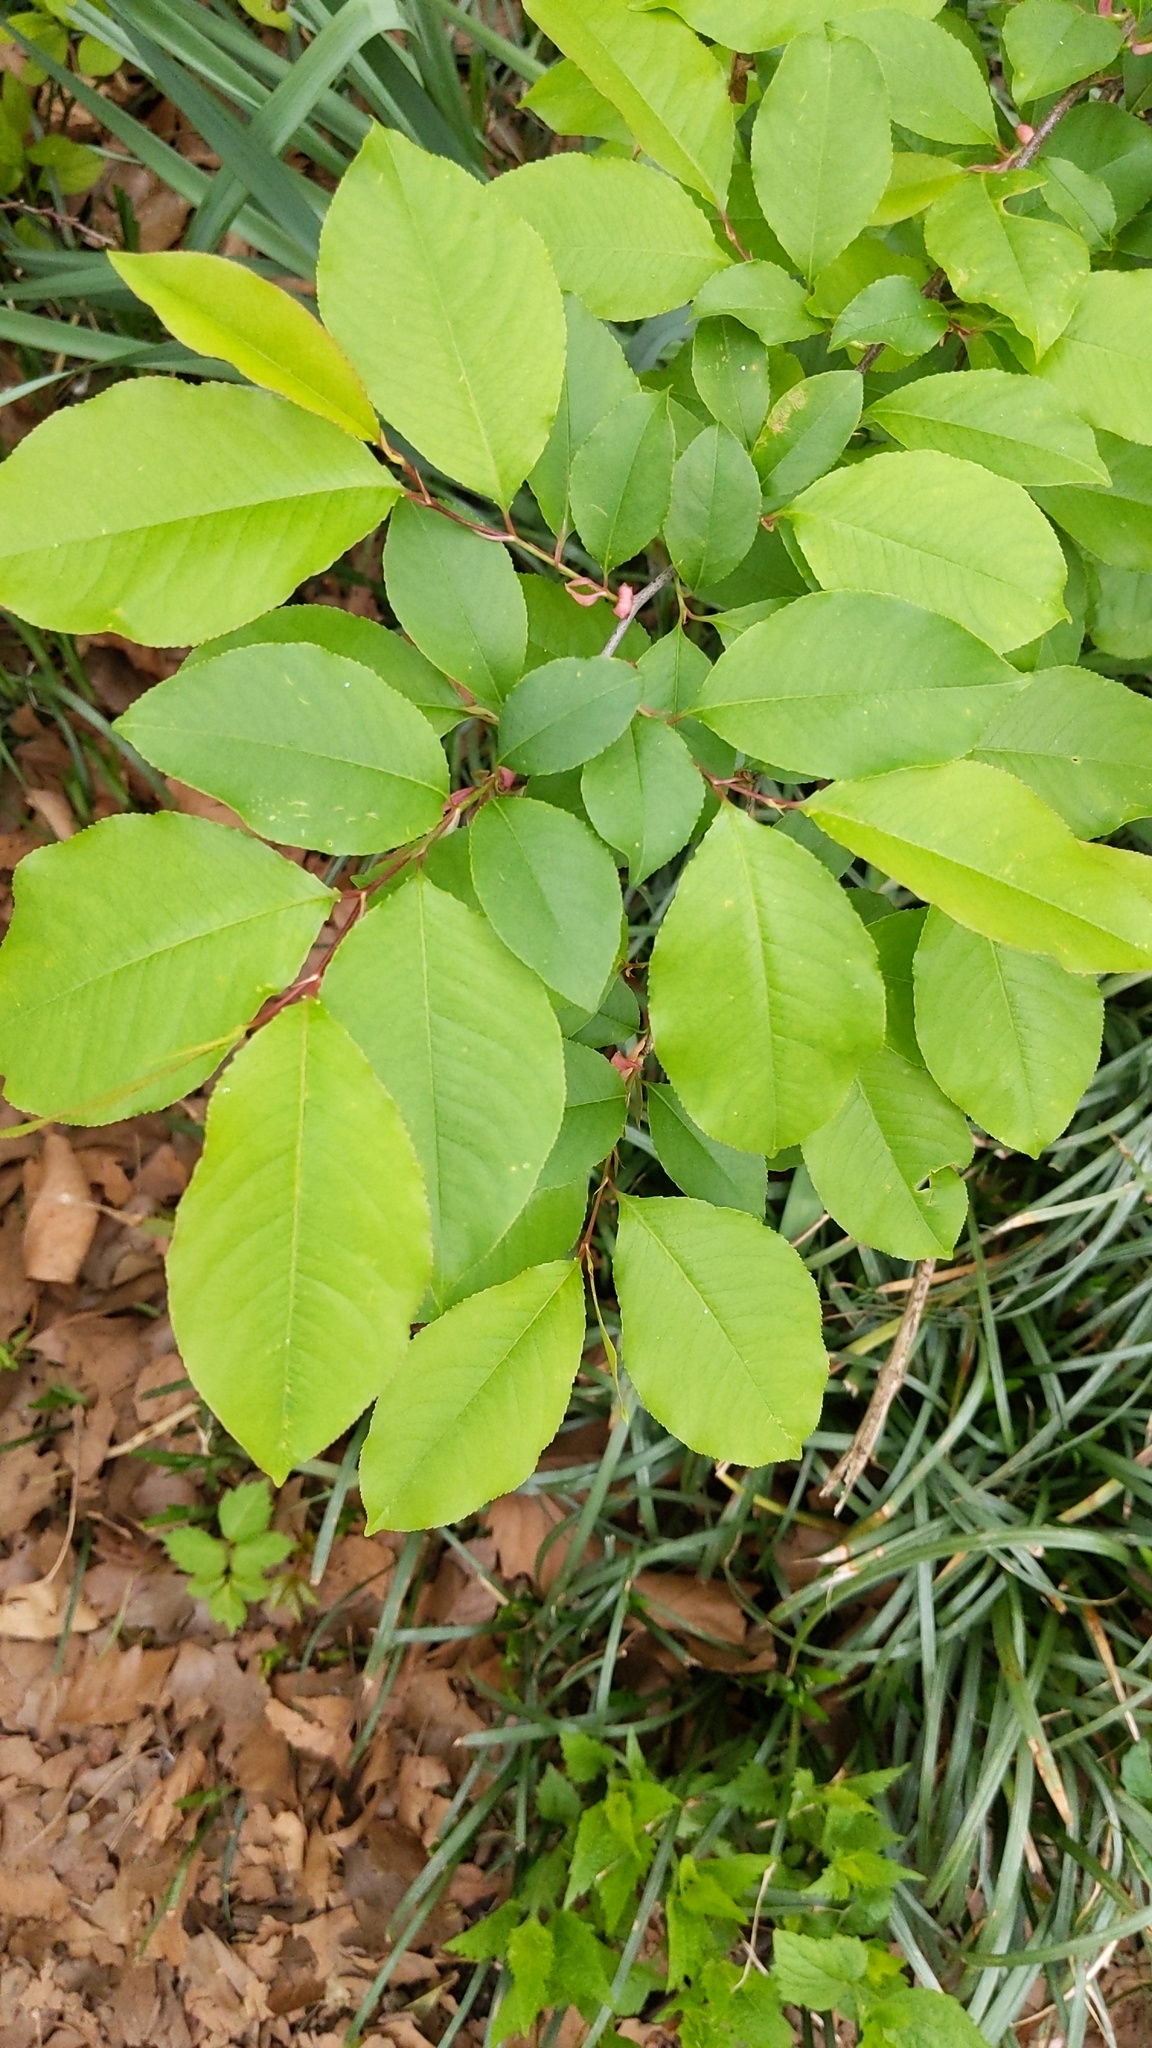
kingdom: Plantae
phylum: Tracheophyta
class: Magnoliopsida
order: Rosales
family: Rosaceae
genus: Prunus
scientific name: Prunus serotina
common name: Black cherry
